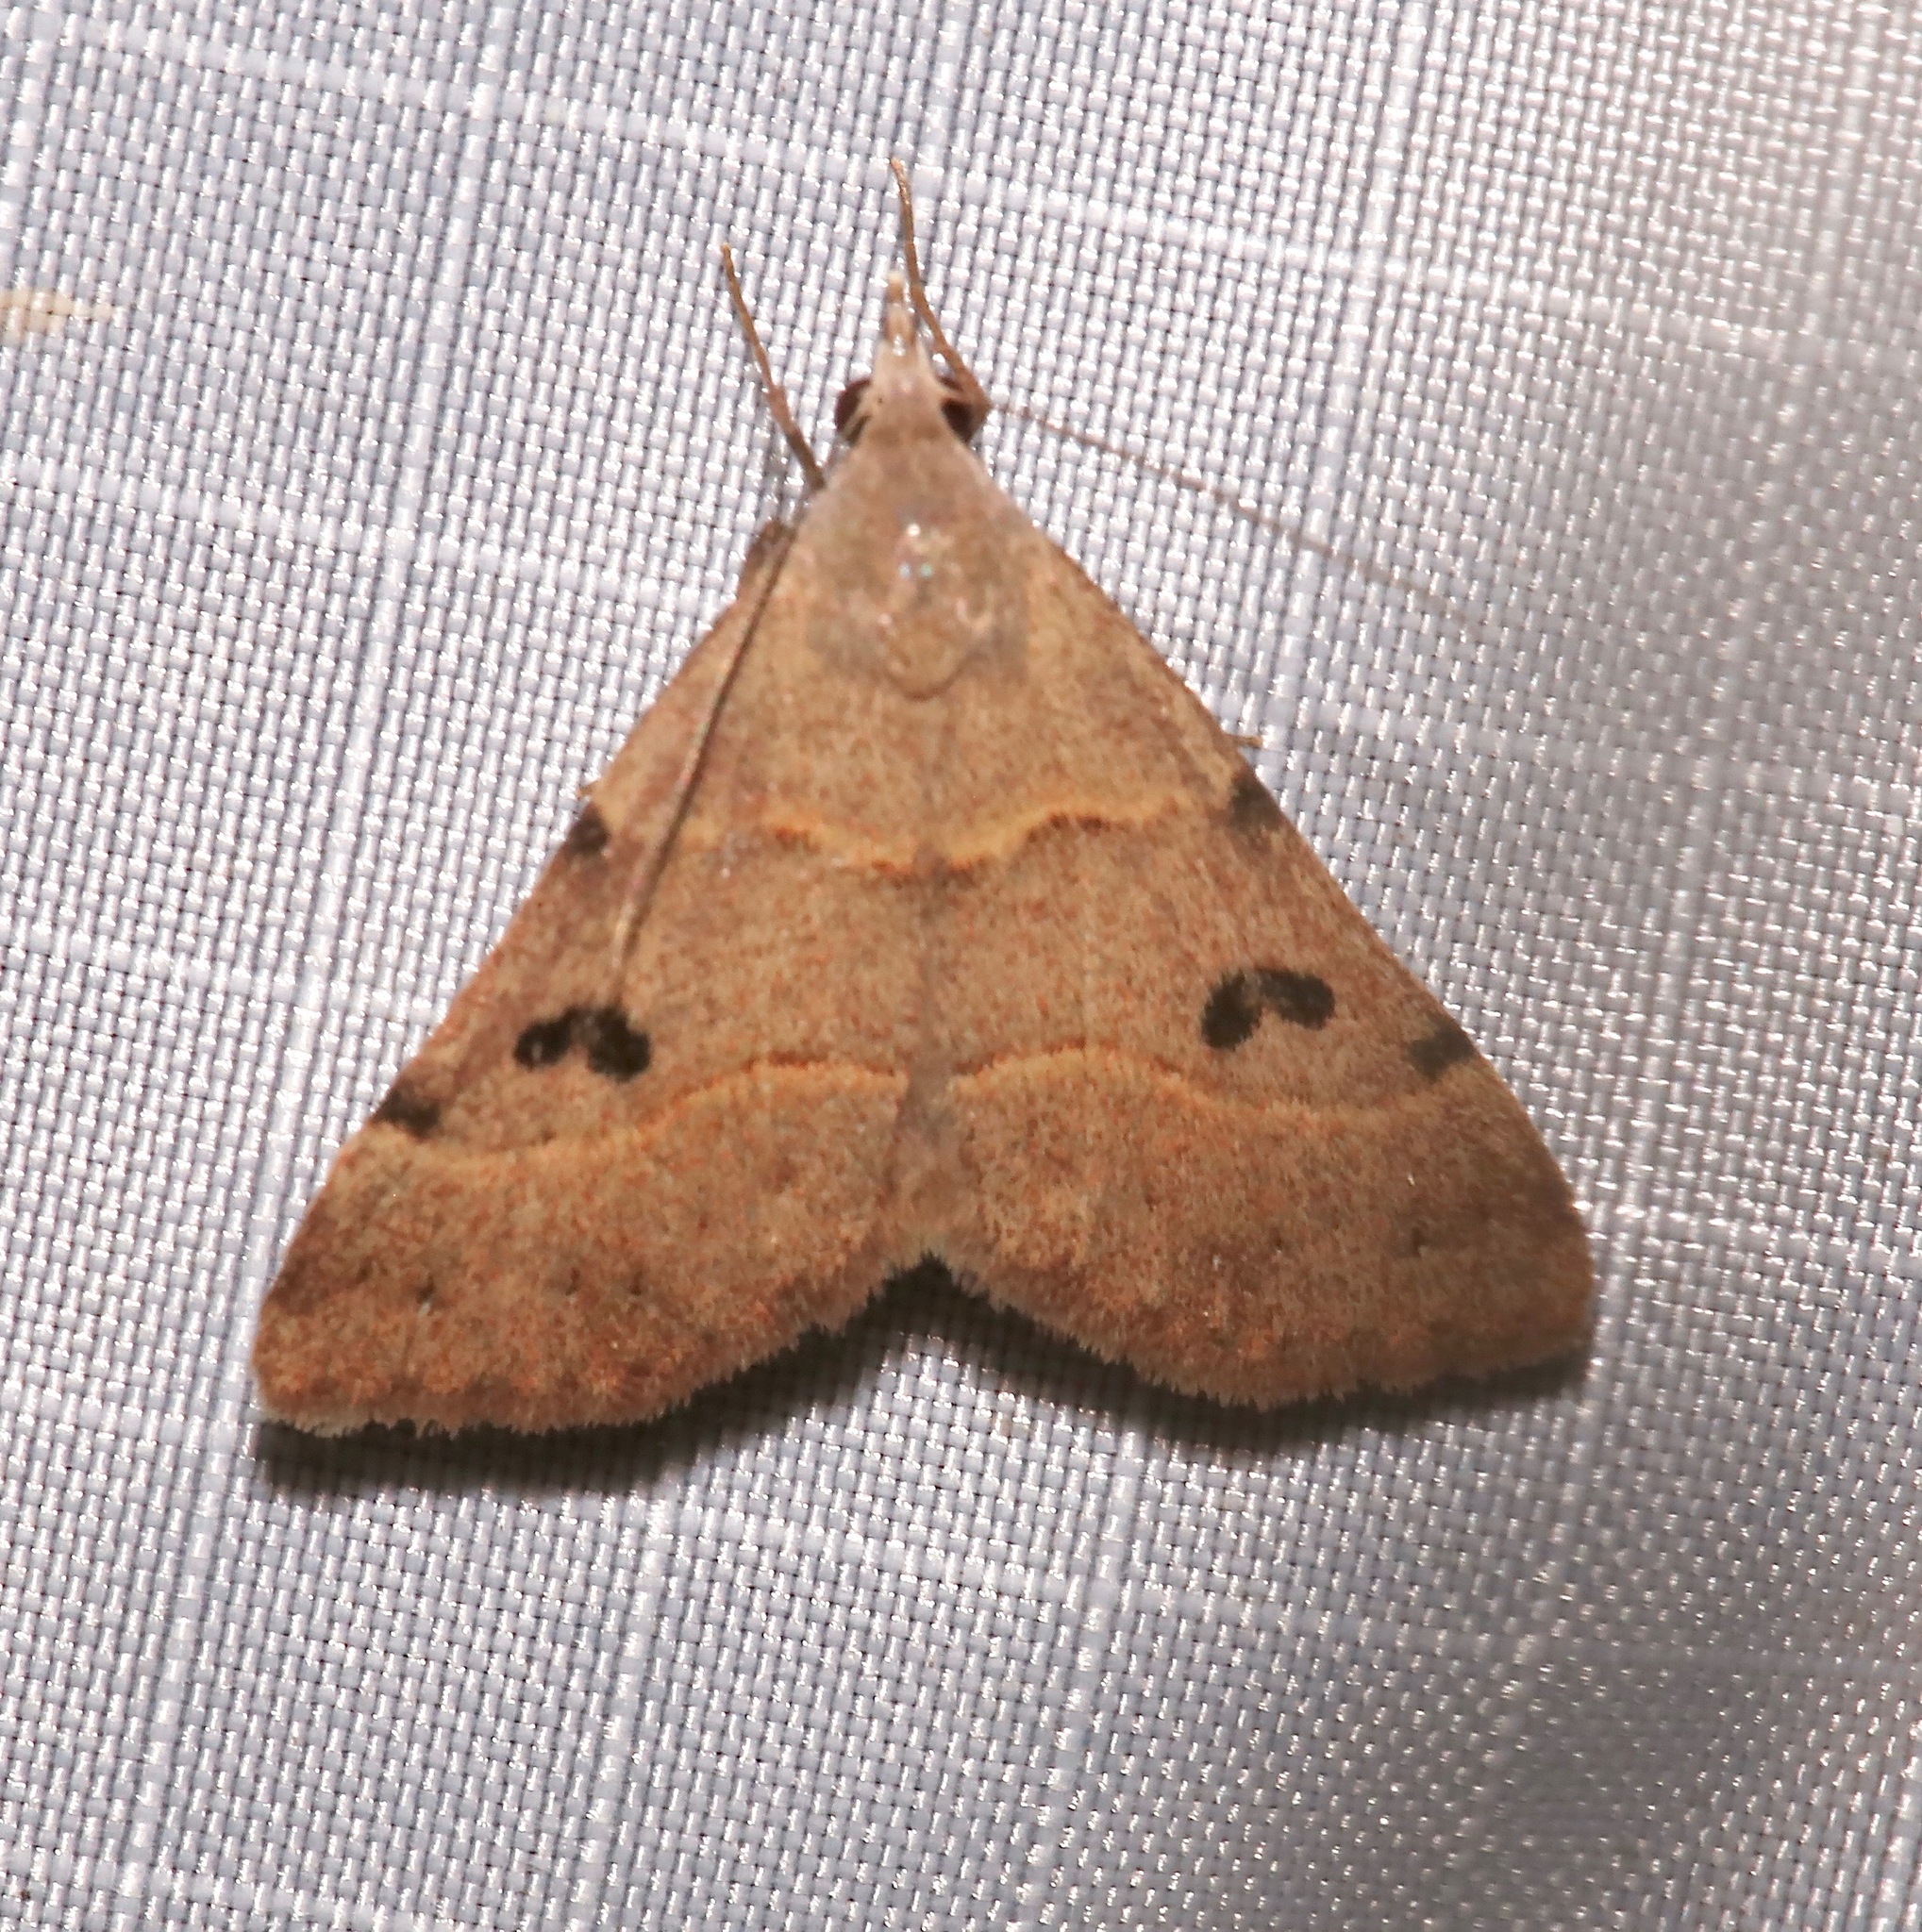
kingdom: Animalia
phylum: Arthropoda
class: Insecta
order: Lepidoptera
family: Erebidae
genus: Hemeroplanis
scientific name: Hemeroplanis rectalis
